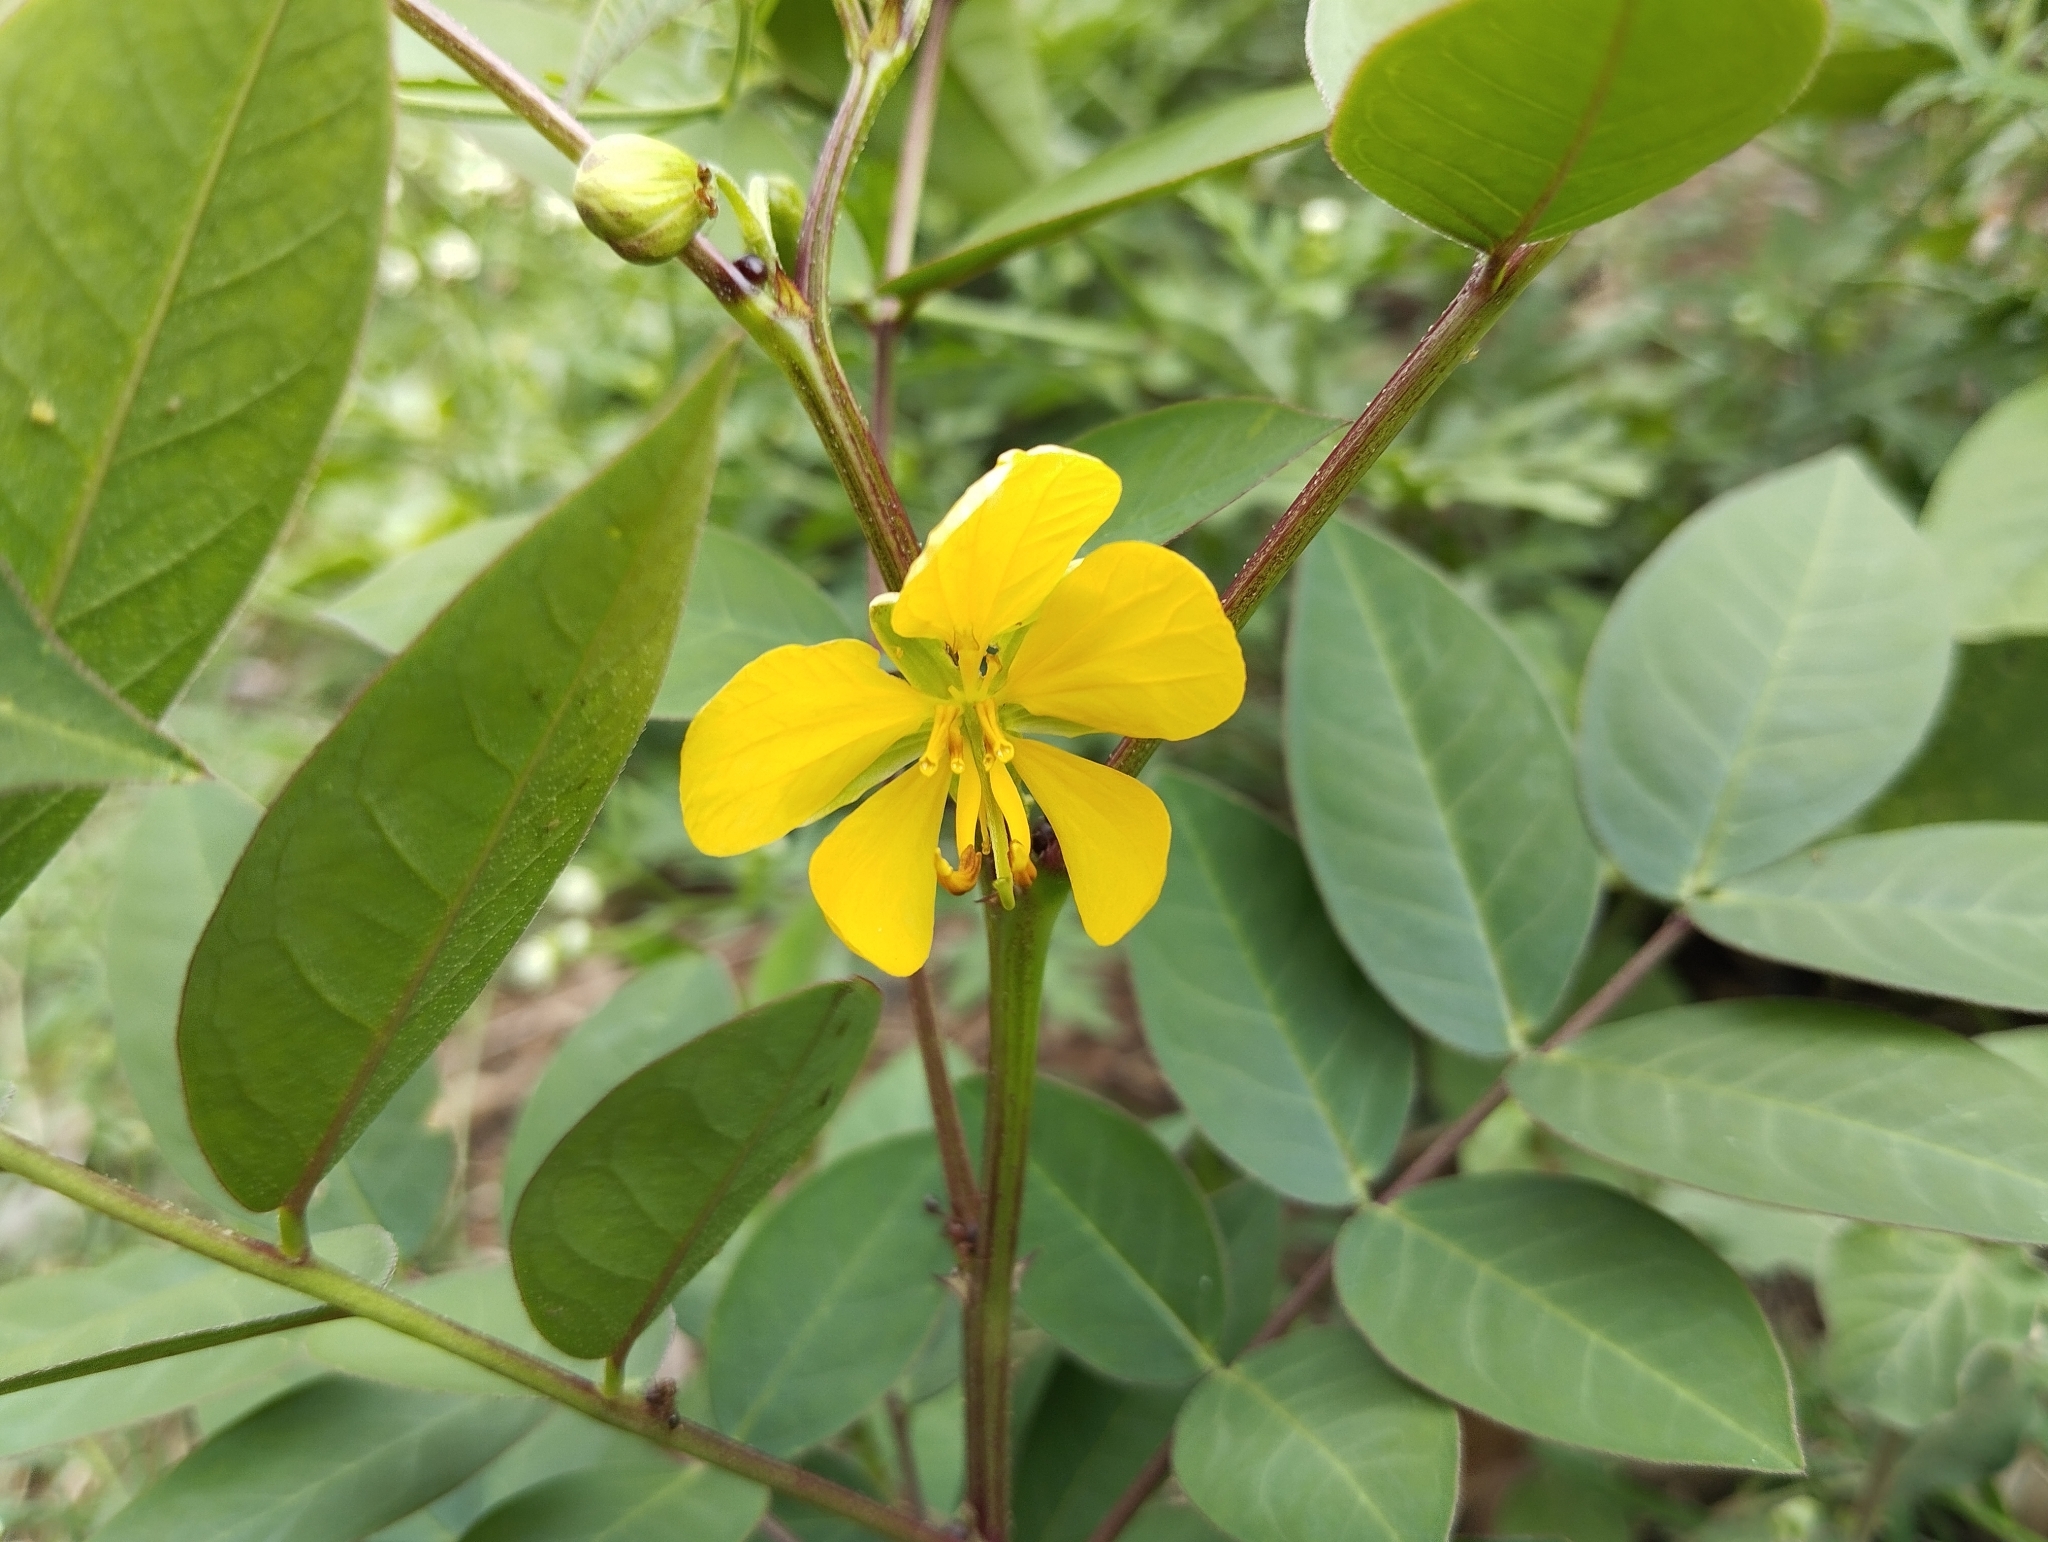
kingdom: Plantae
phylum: Tracheophyta
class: Magnoliopsida
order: Fabales
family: Fabaceae
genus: Senna
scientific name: Senna occidentalis
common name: Septicweed
